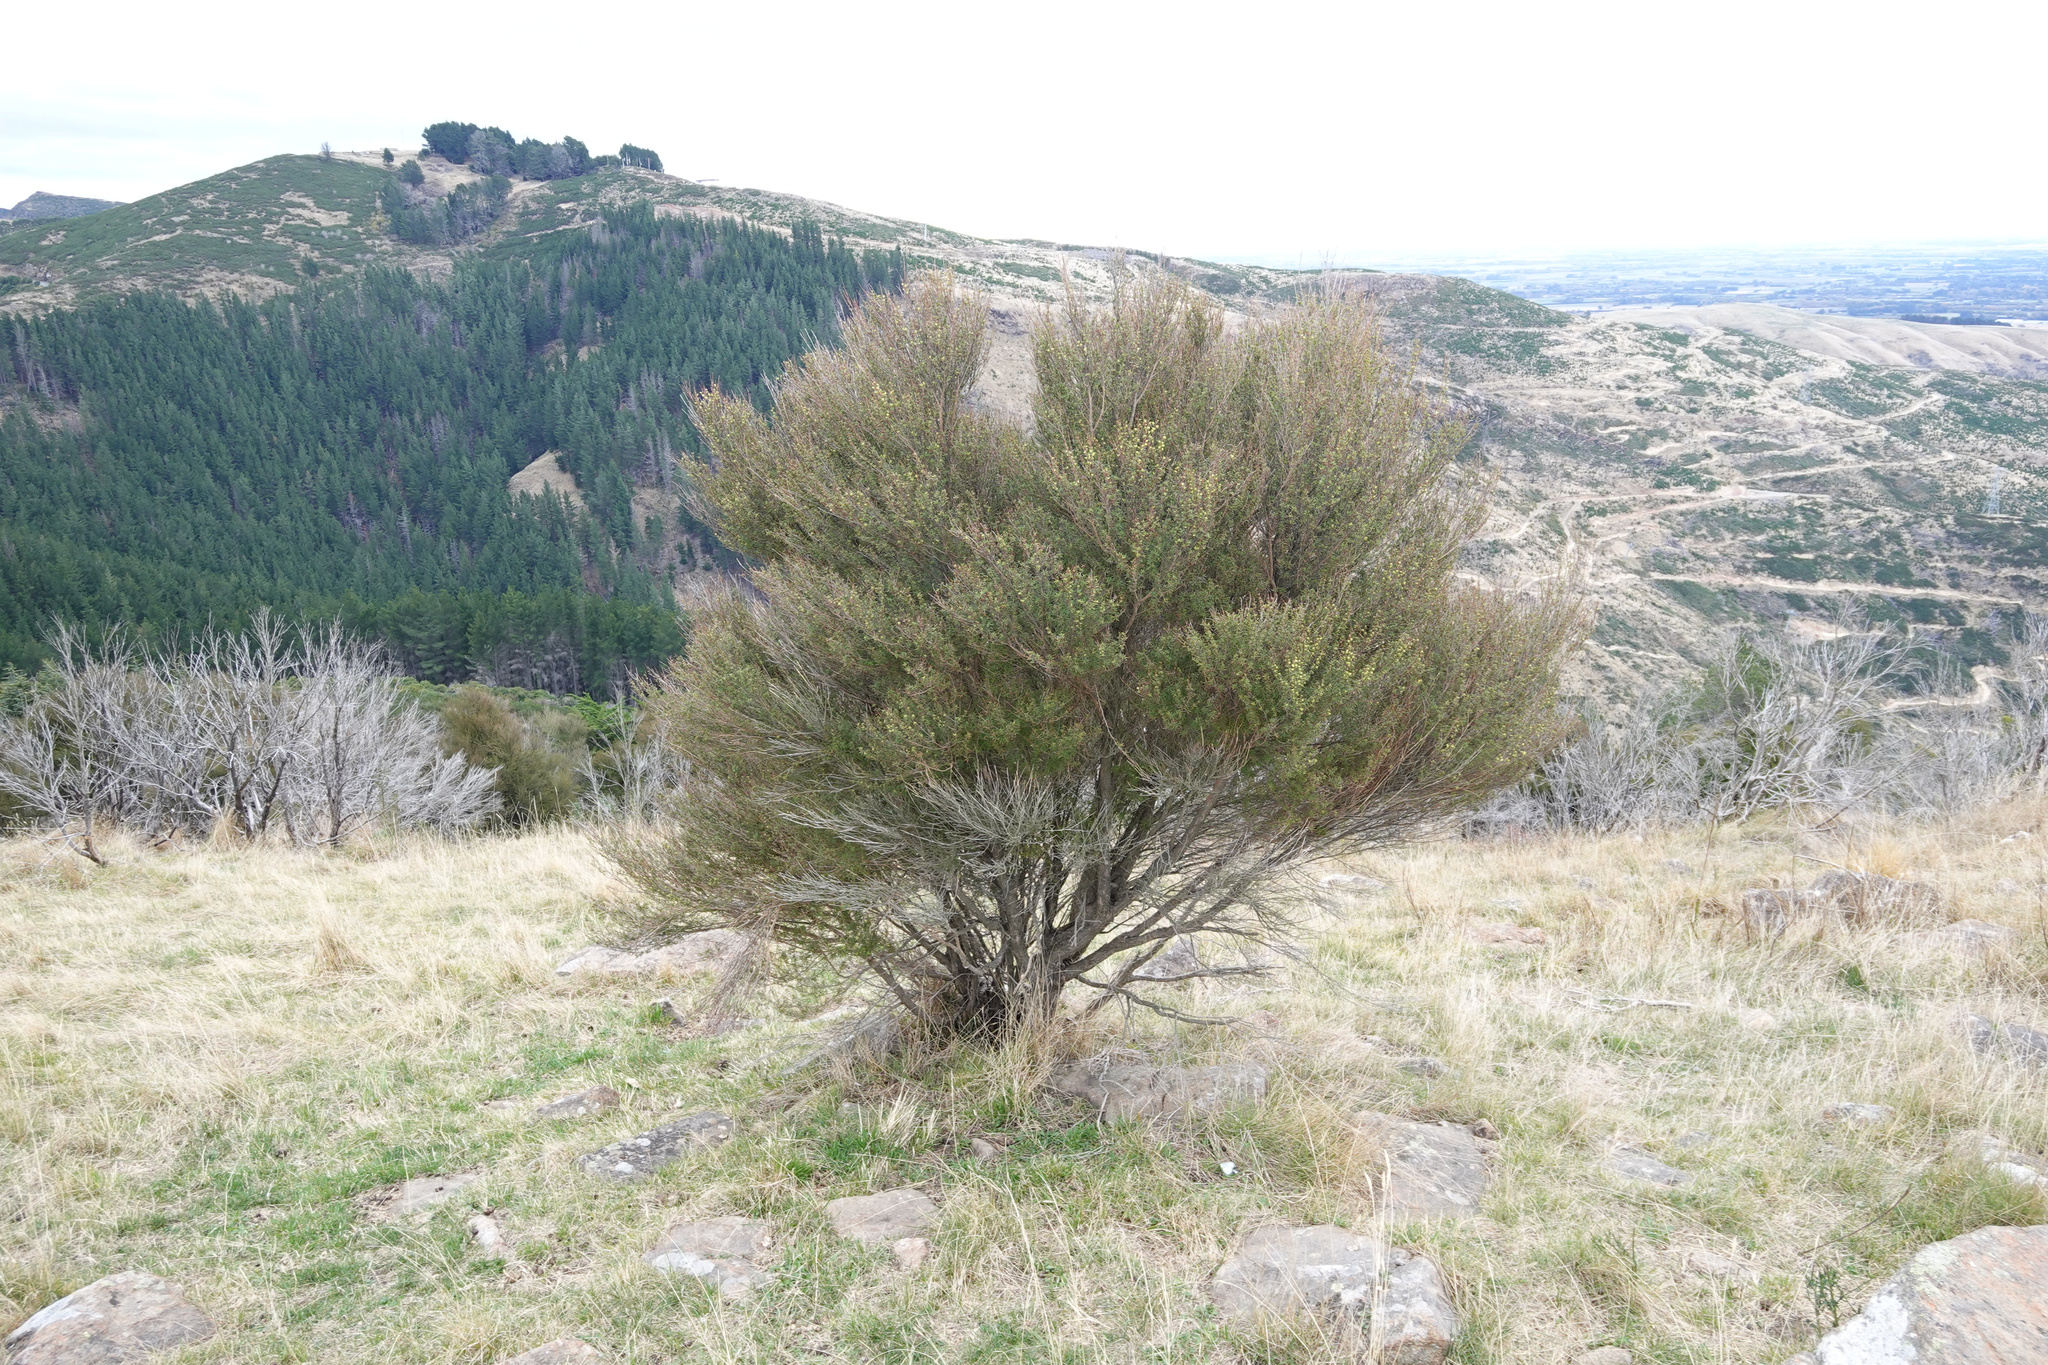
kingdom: Plantae
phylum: Tracheophyta
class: Magnoliopsida
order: Myrtales
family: Myrtaceae
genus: Kunzea
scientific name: Kunzea robusta
